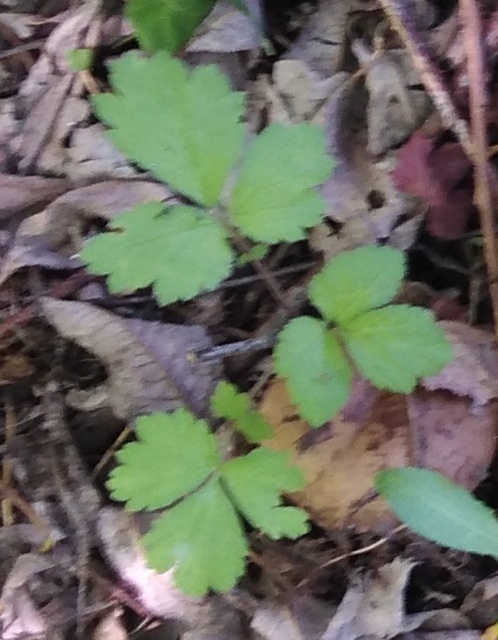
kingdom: Plantae
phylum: Tracheophyta
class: Magnoliopsida
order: Rosales
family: Rosaceae
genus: Geum
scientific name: Geum urbanum
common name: Wood avens
